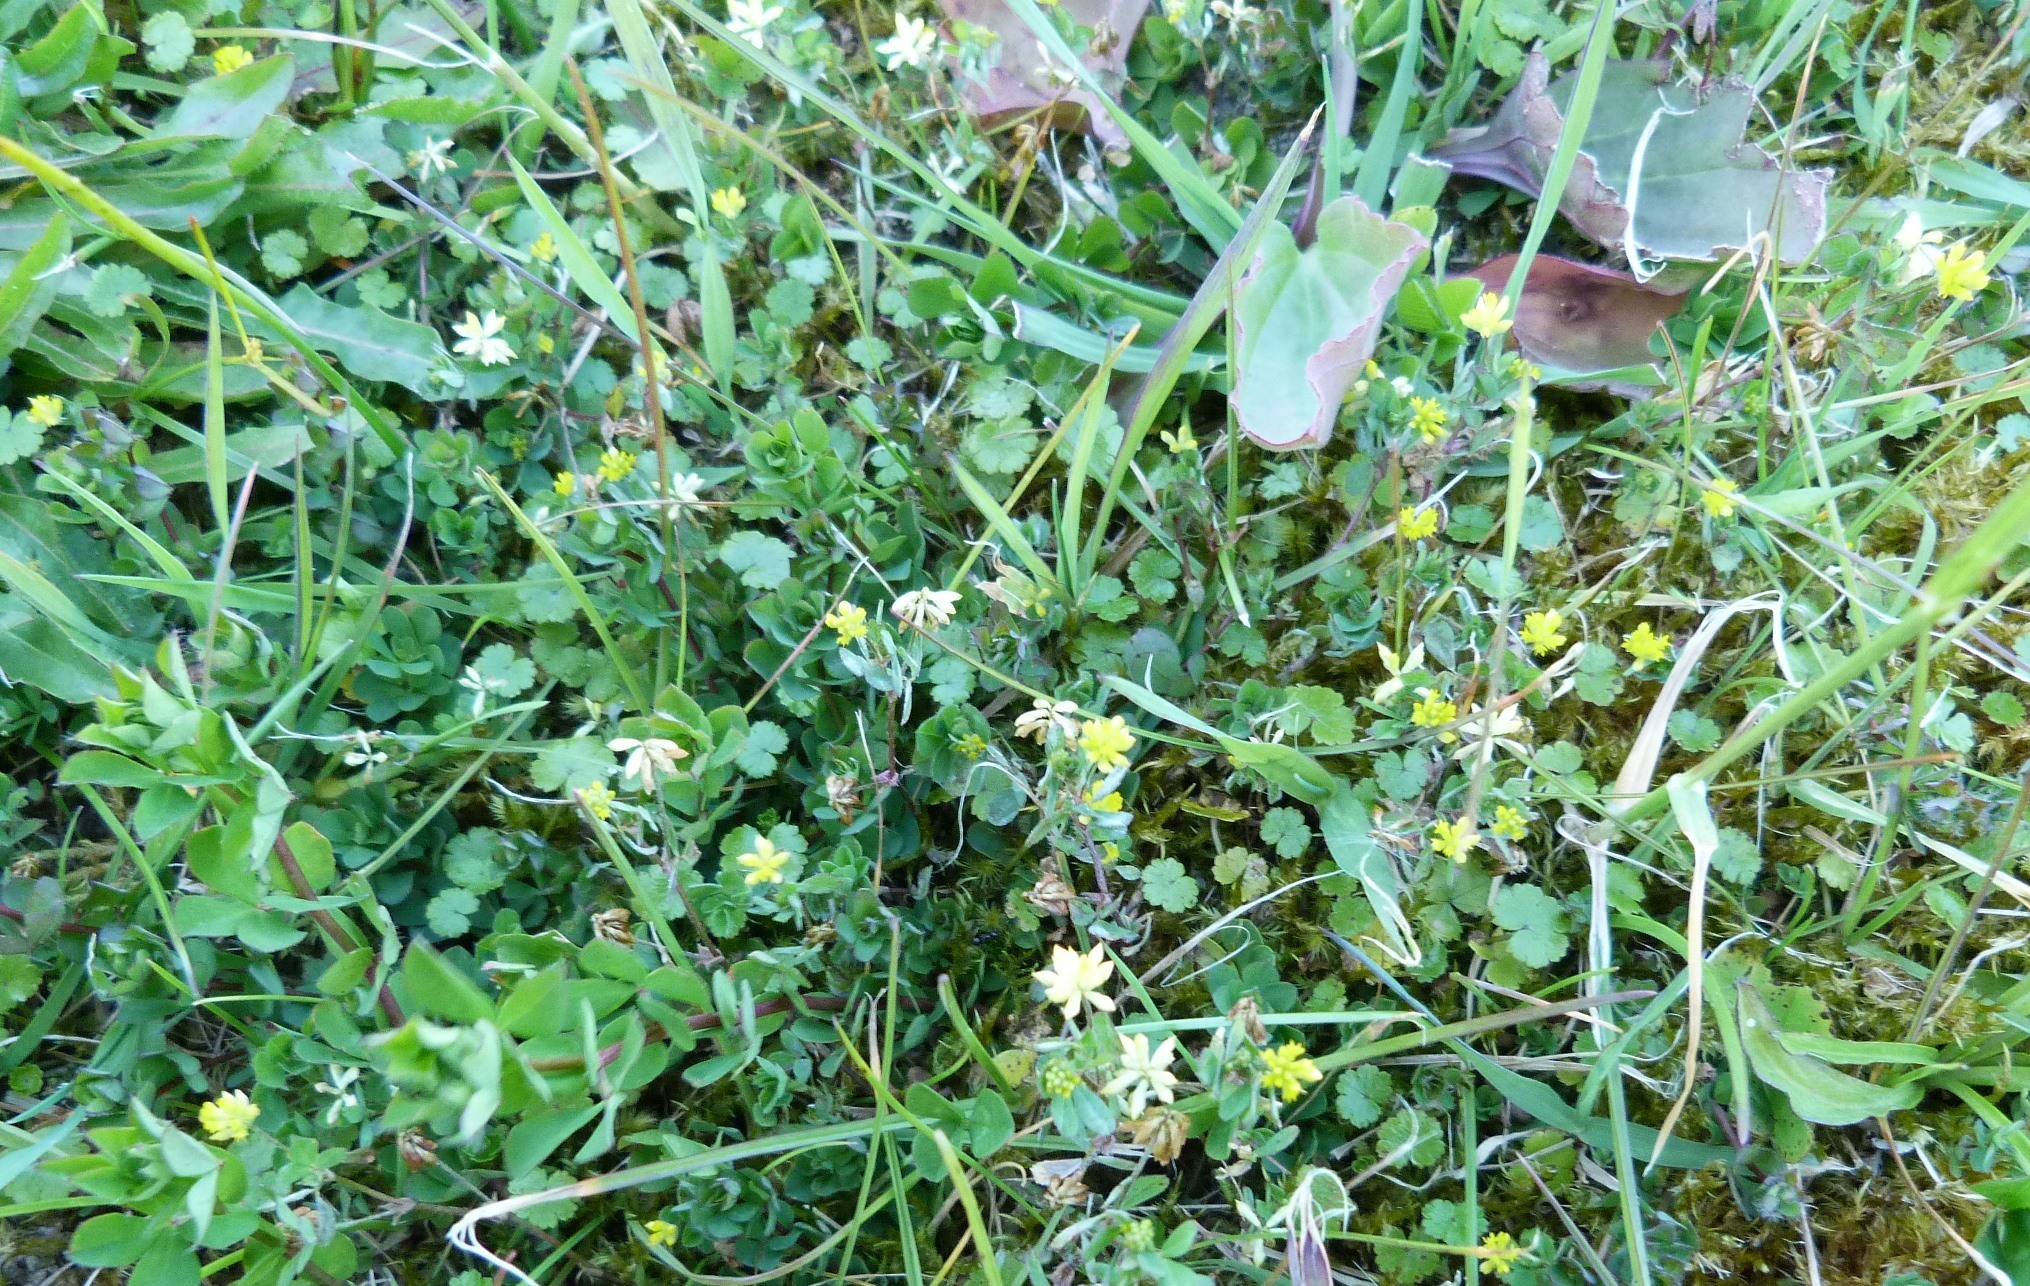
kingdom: Plantae
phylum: Tracheophyta
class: Magnoliopsida
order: Fabales
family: Fabaceae
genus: Trifolium
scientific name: Trifolium dubium
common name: Suckling clover
